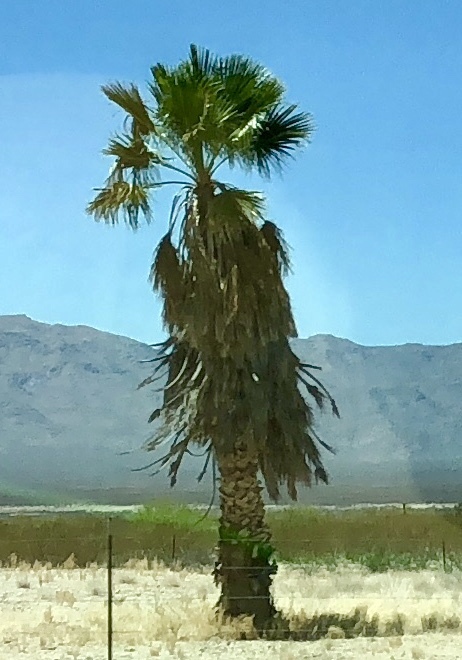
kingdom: Plantae
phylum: Tracheophyta
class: Liliopsida
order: Arecales
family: Arecaceae
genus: Washingtonia
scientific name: Washingtonia filifera
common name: California fan palm
